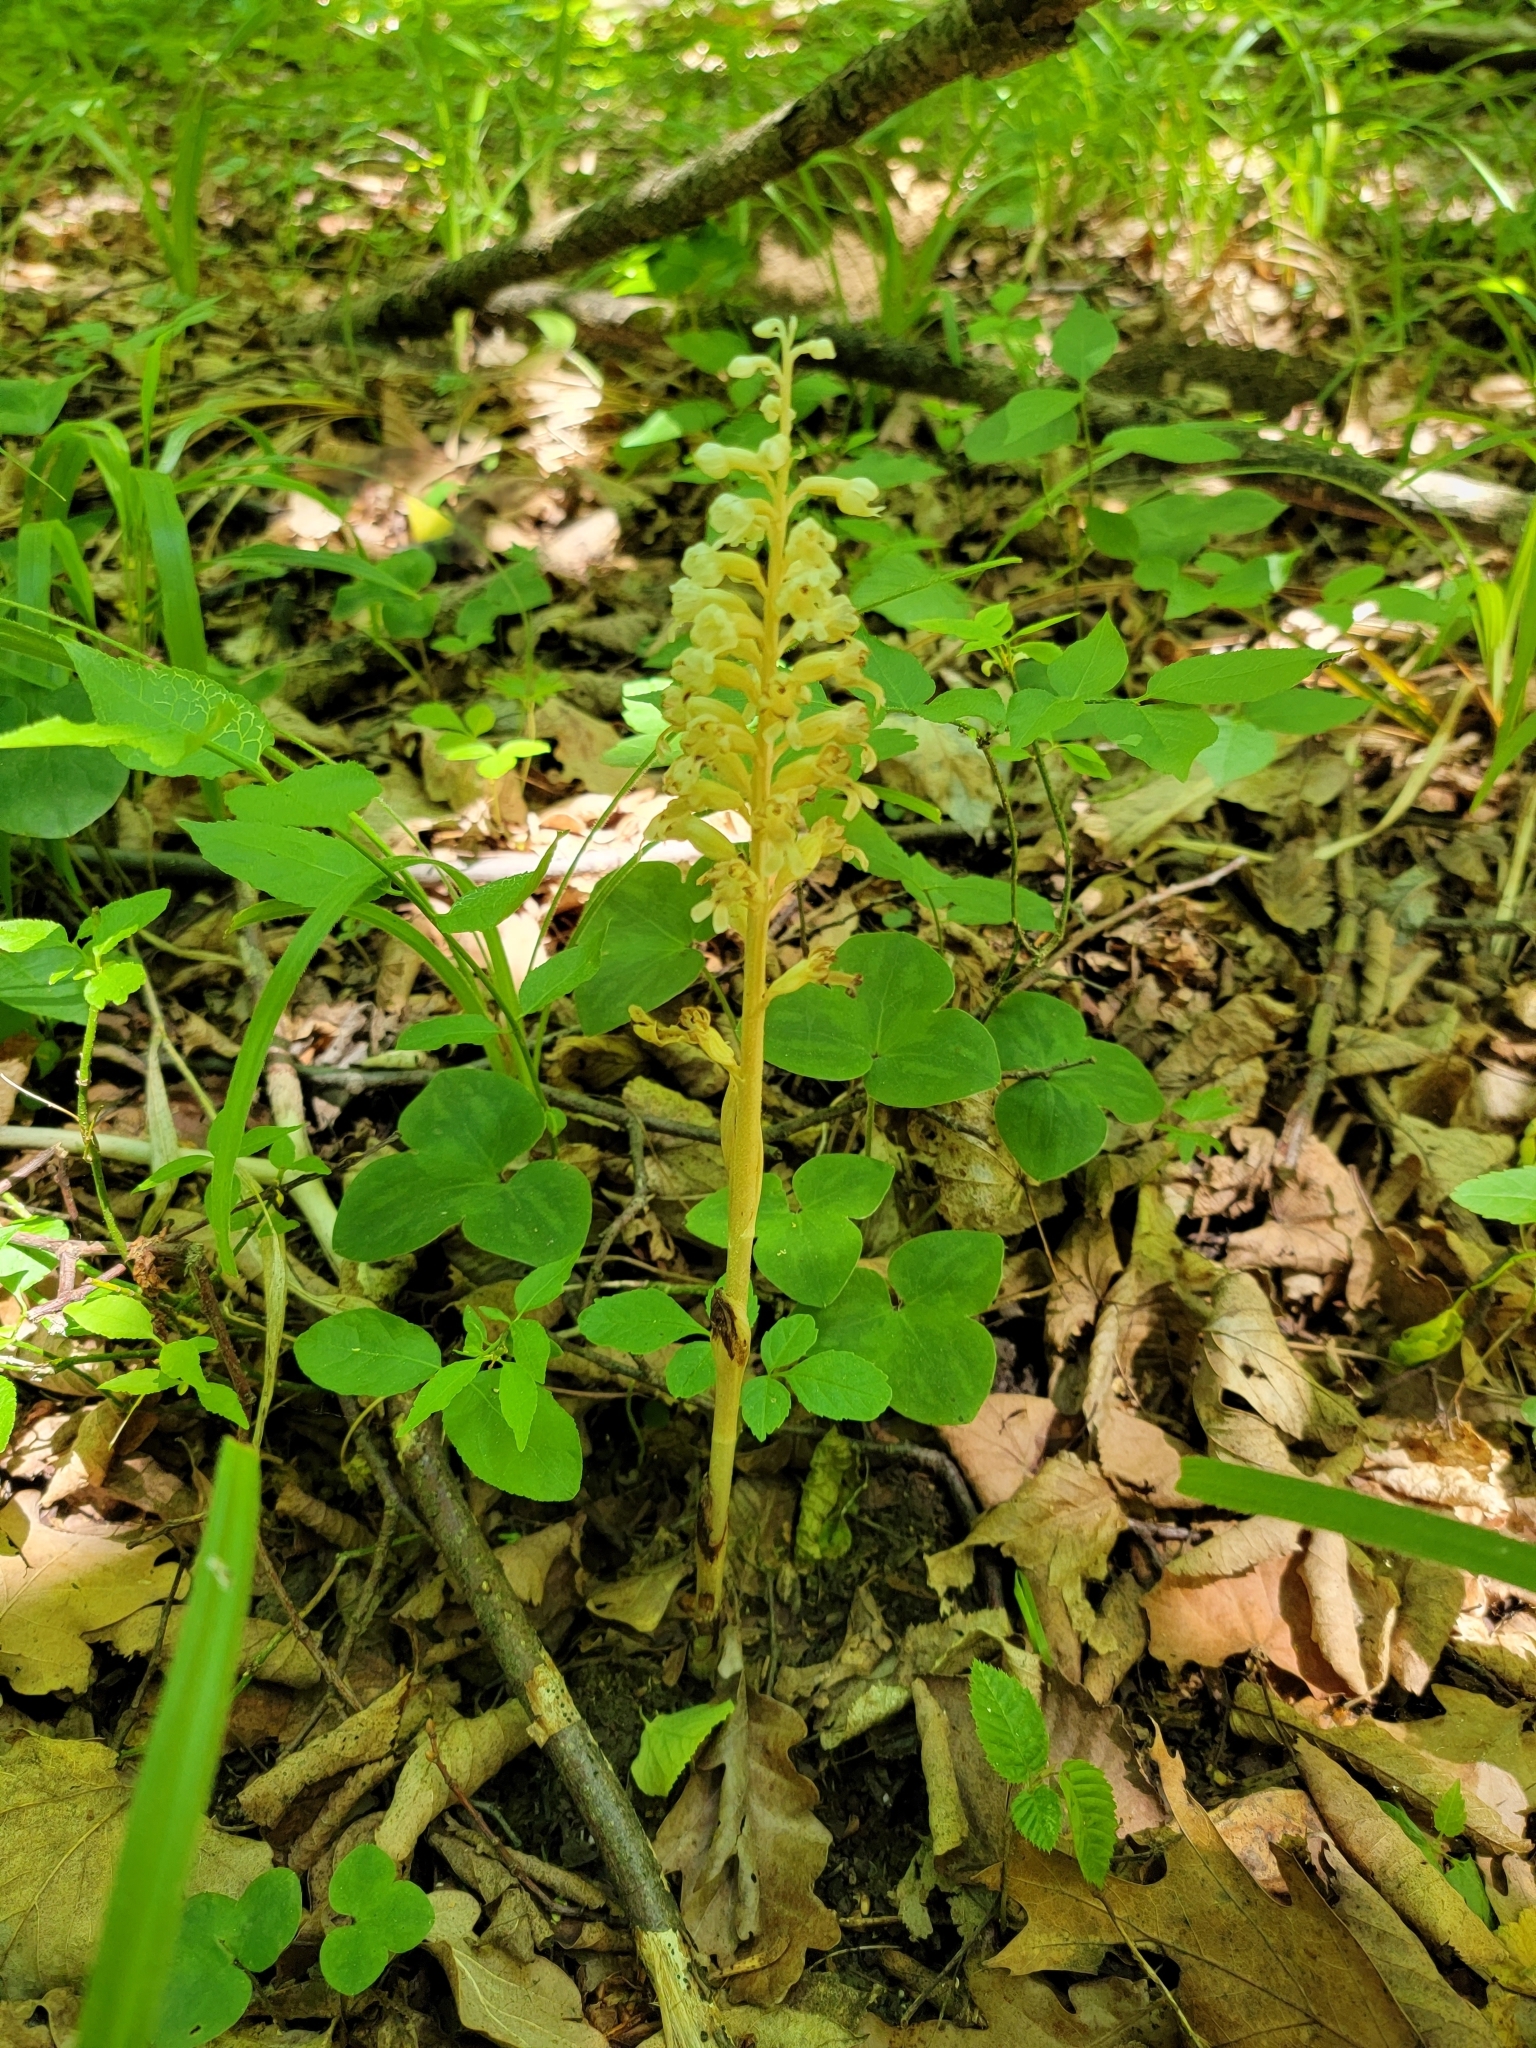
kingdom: Plantae
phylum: Tracheophyta
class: Liliopsida
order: Asparagales
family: Orchidaceae
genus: Neottia
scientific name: Neottia nidus-avis
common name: Bird's-nest orchid
